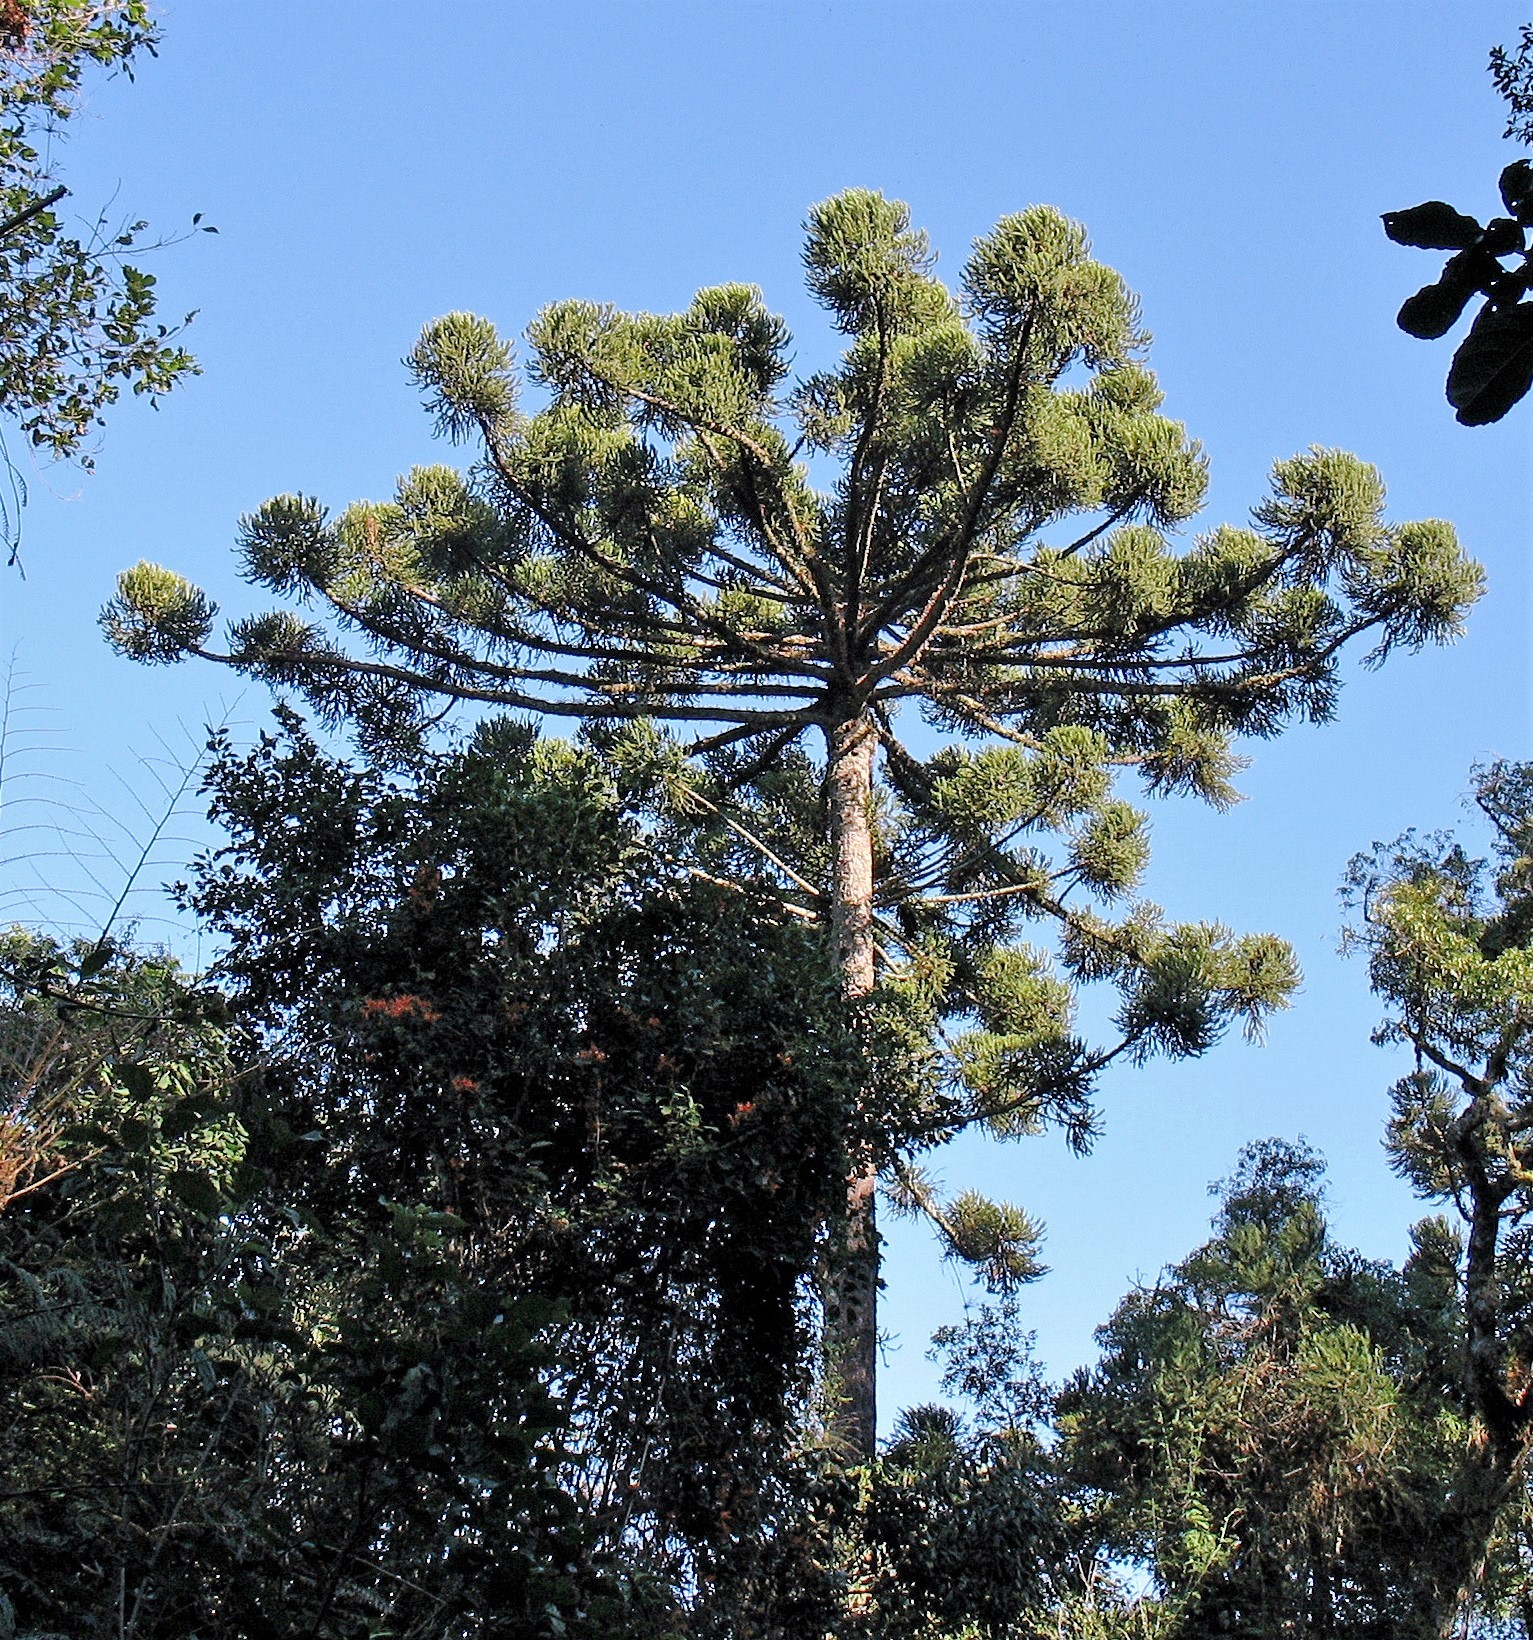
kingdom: Plantae
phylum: Tracheophyta
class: Pinopsida
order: Pinales
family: Araucariaceae
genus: Araucaria
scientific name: Araucaria angustifolia
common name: Candelabra tree
